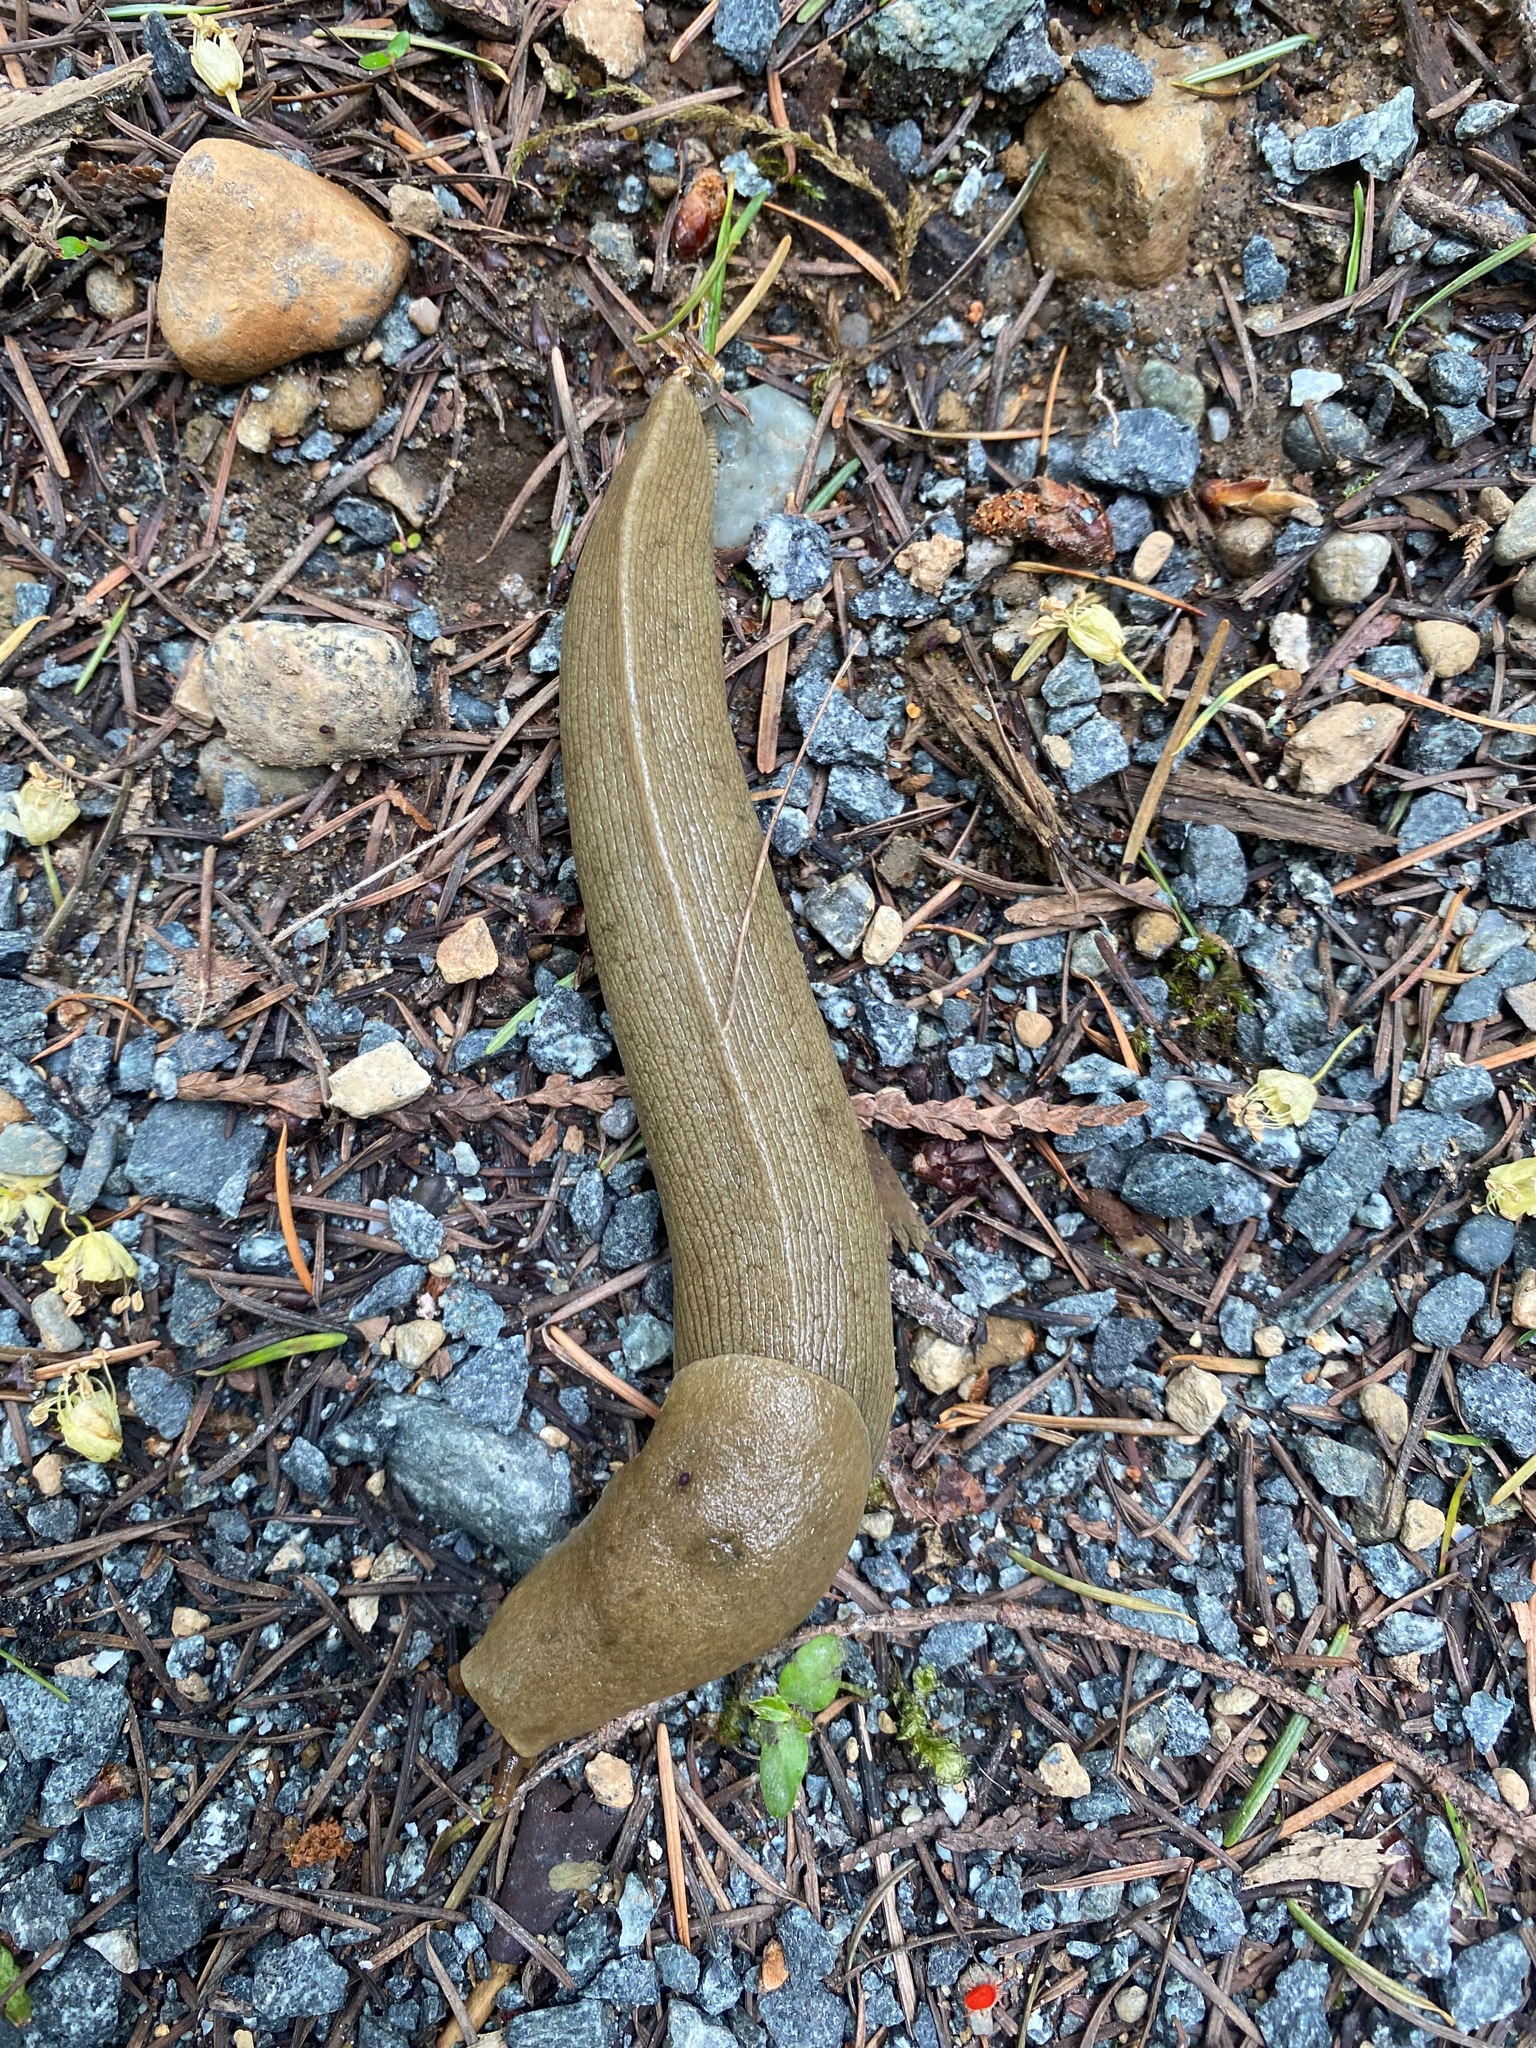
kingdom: Animalia
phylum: Mollusca
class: Gastropoda
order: Stylommatophora
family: Ariolimacidae
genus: Ariolimax
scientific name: Ariolimax columbianus
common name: Pacific banana slug
